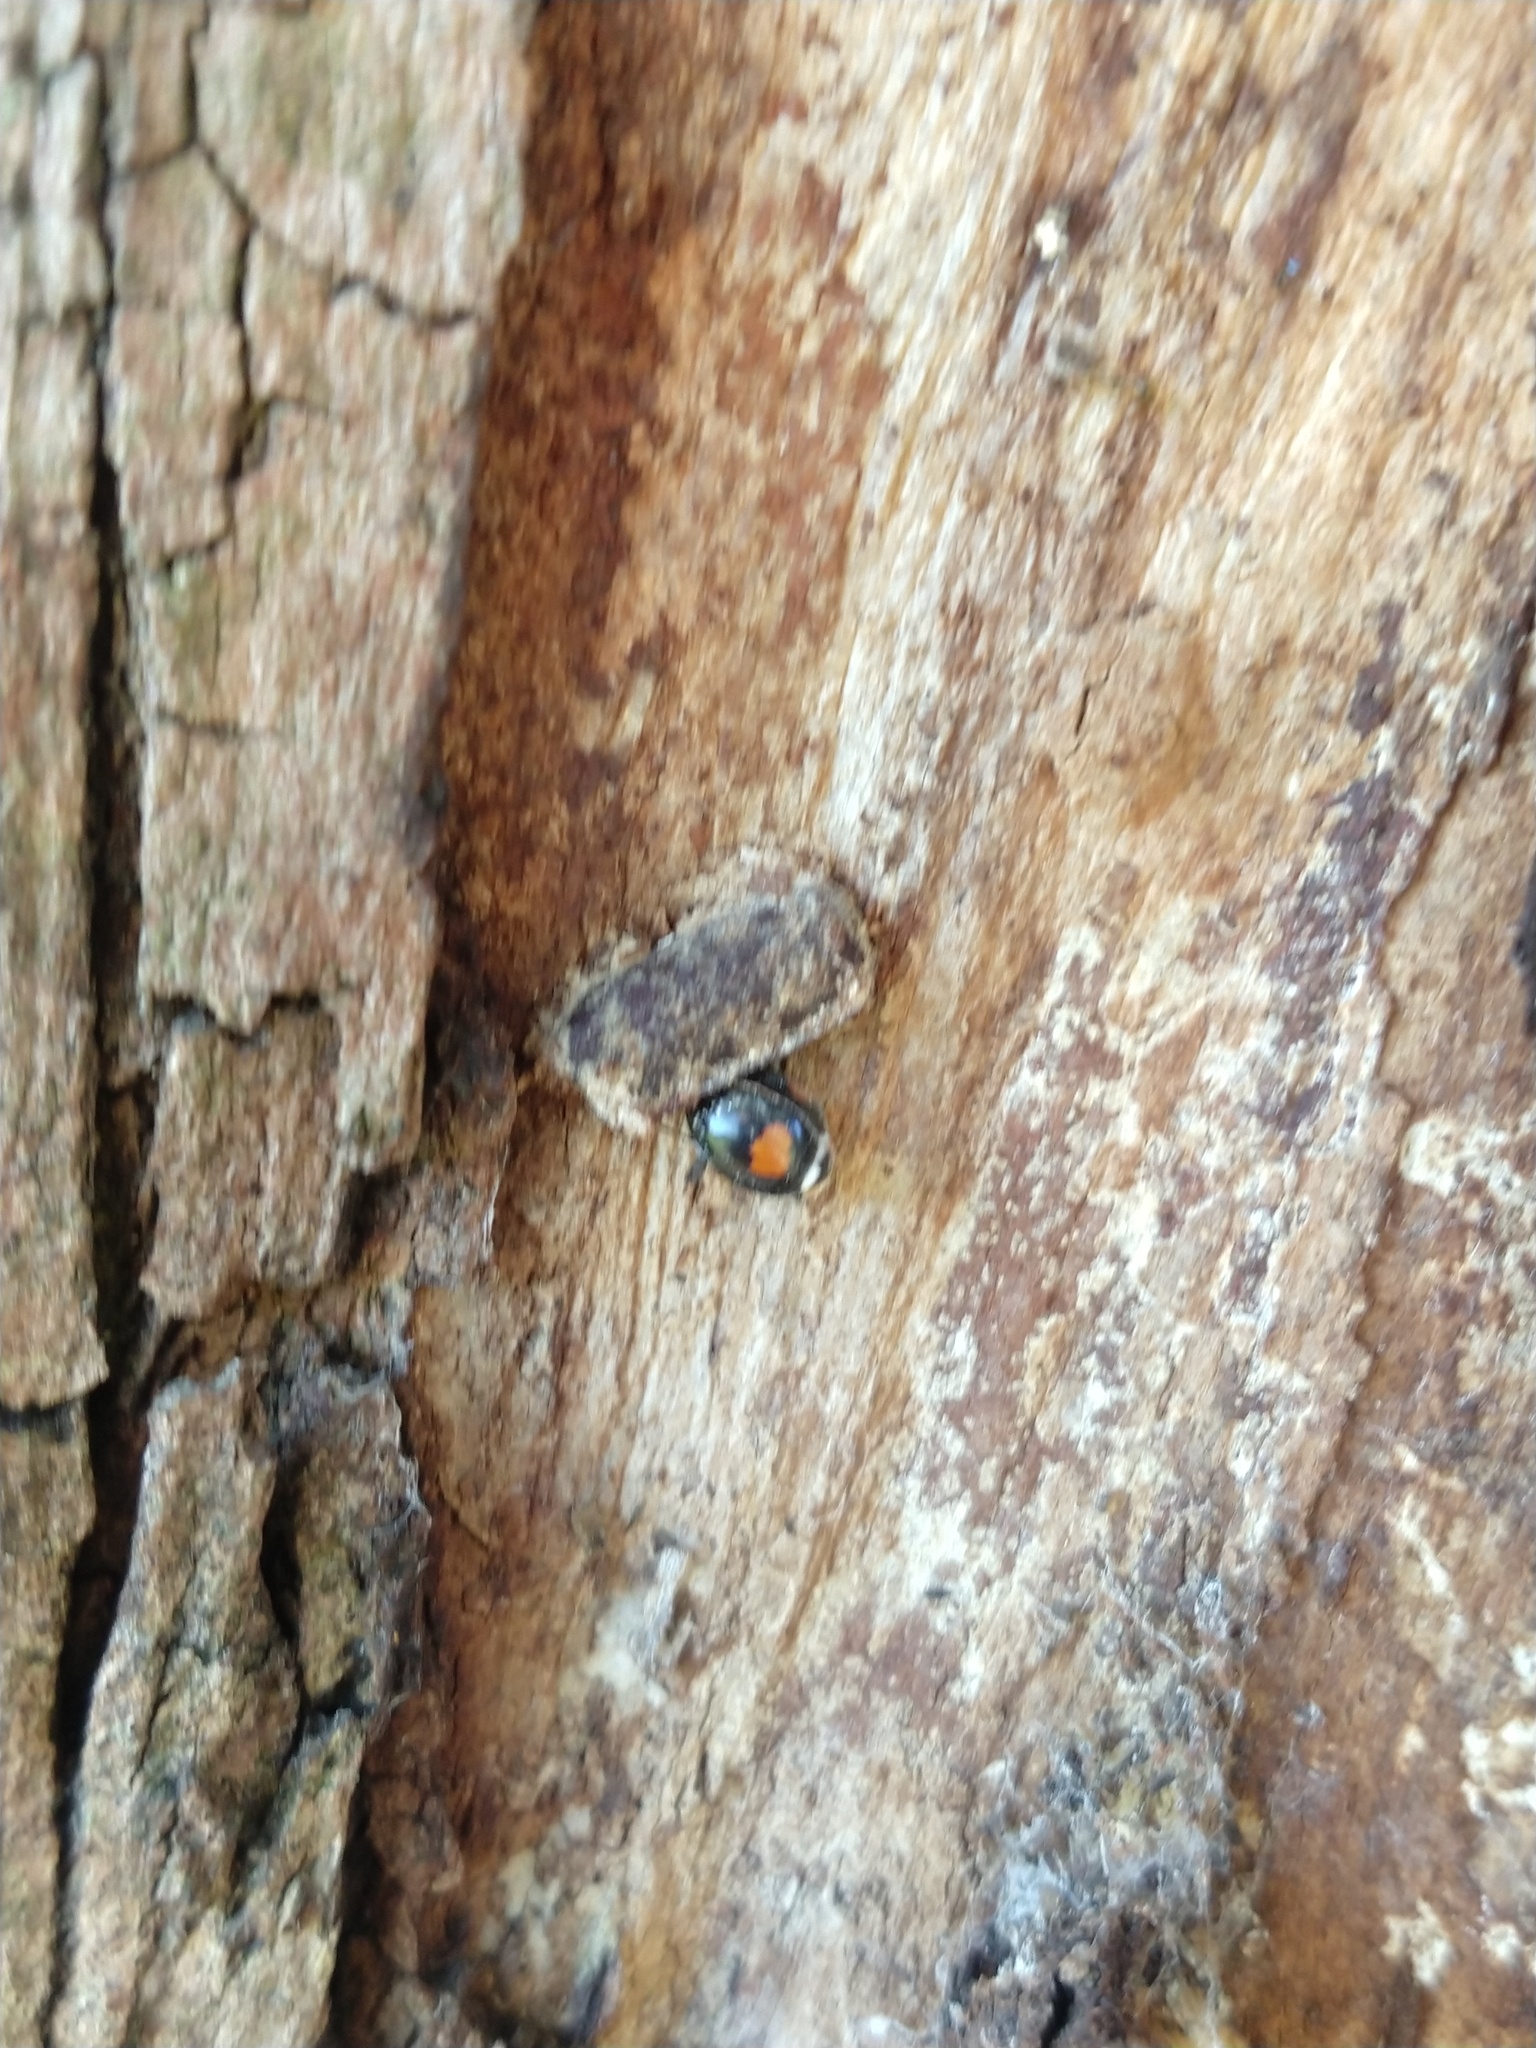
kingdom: Animalia
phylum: Arthropoda
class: Insecta
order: Coleoptera
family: Coccinellidae
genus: Curinus
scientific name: Curinus coeruleus
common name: Ladybird beetle
